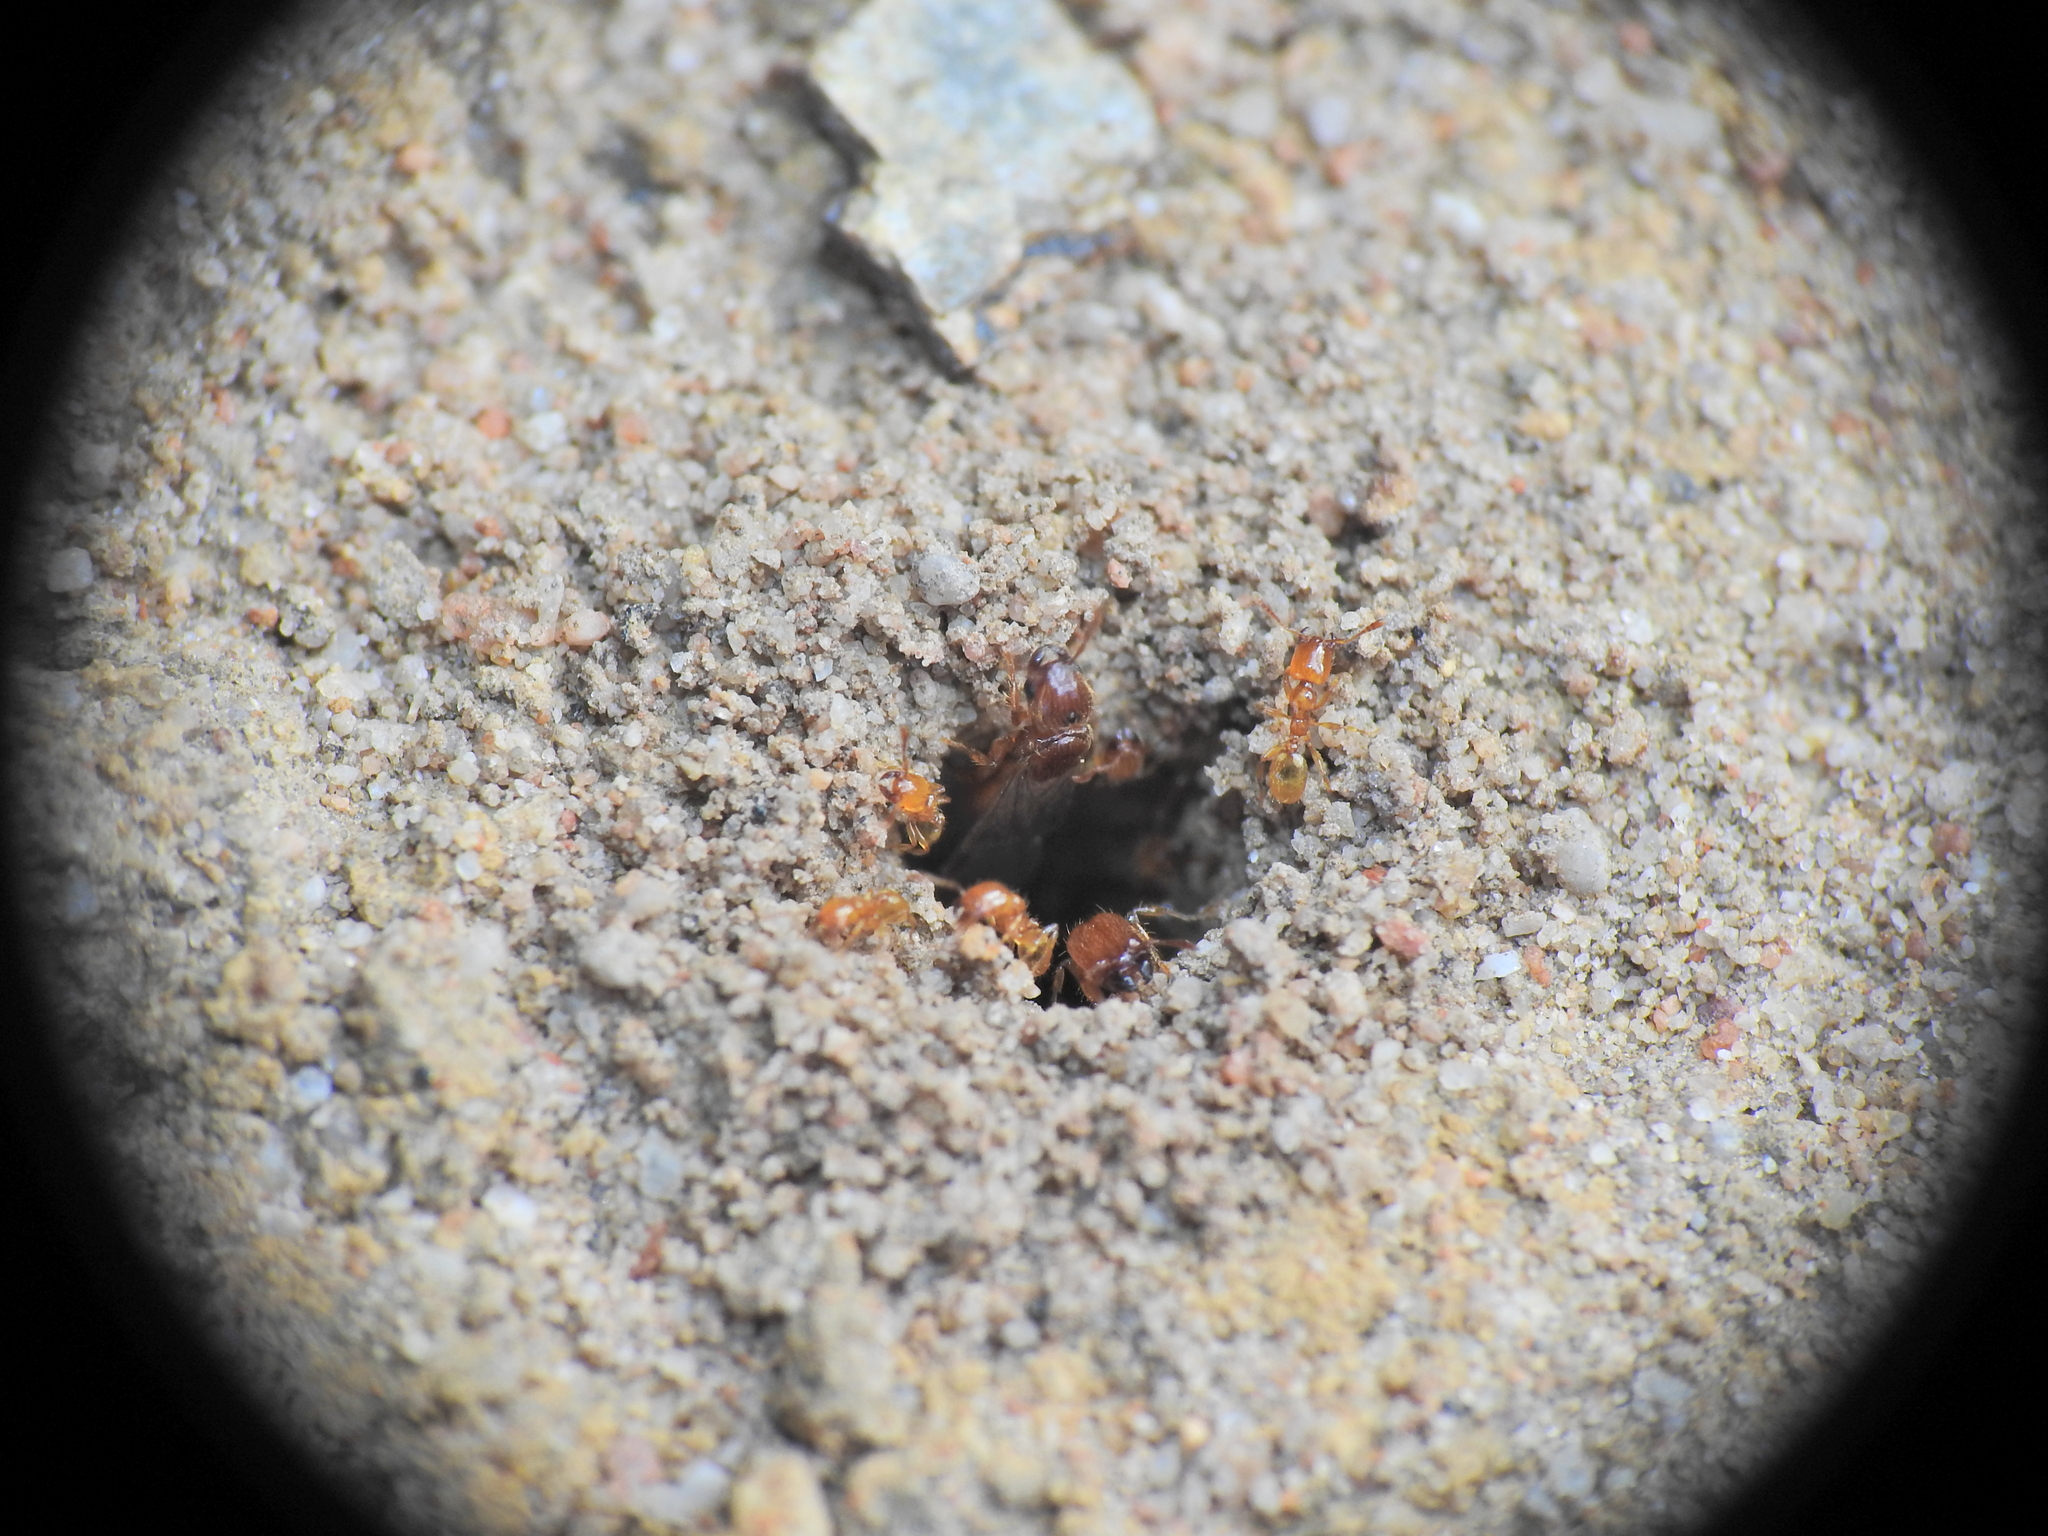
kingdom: Animalia
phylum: Arthropoda
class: Insecta
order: Hymenoptera
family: Formicidae
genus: Pheidole
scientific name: Pheidole
